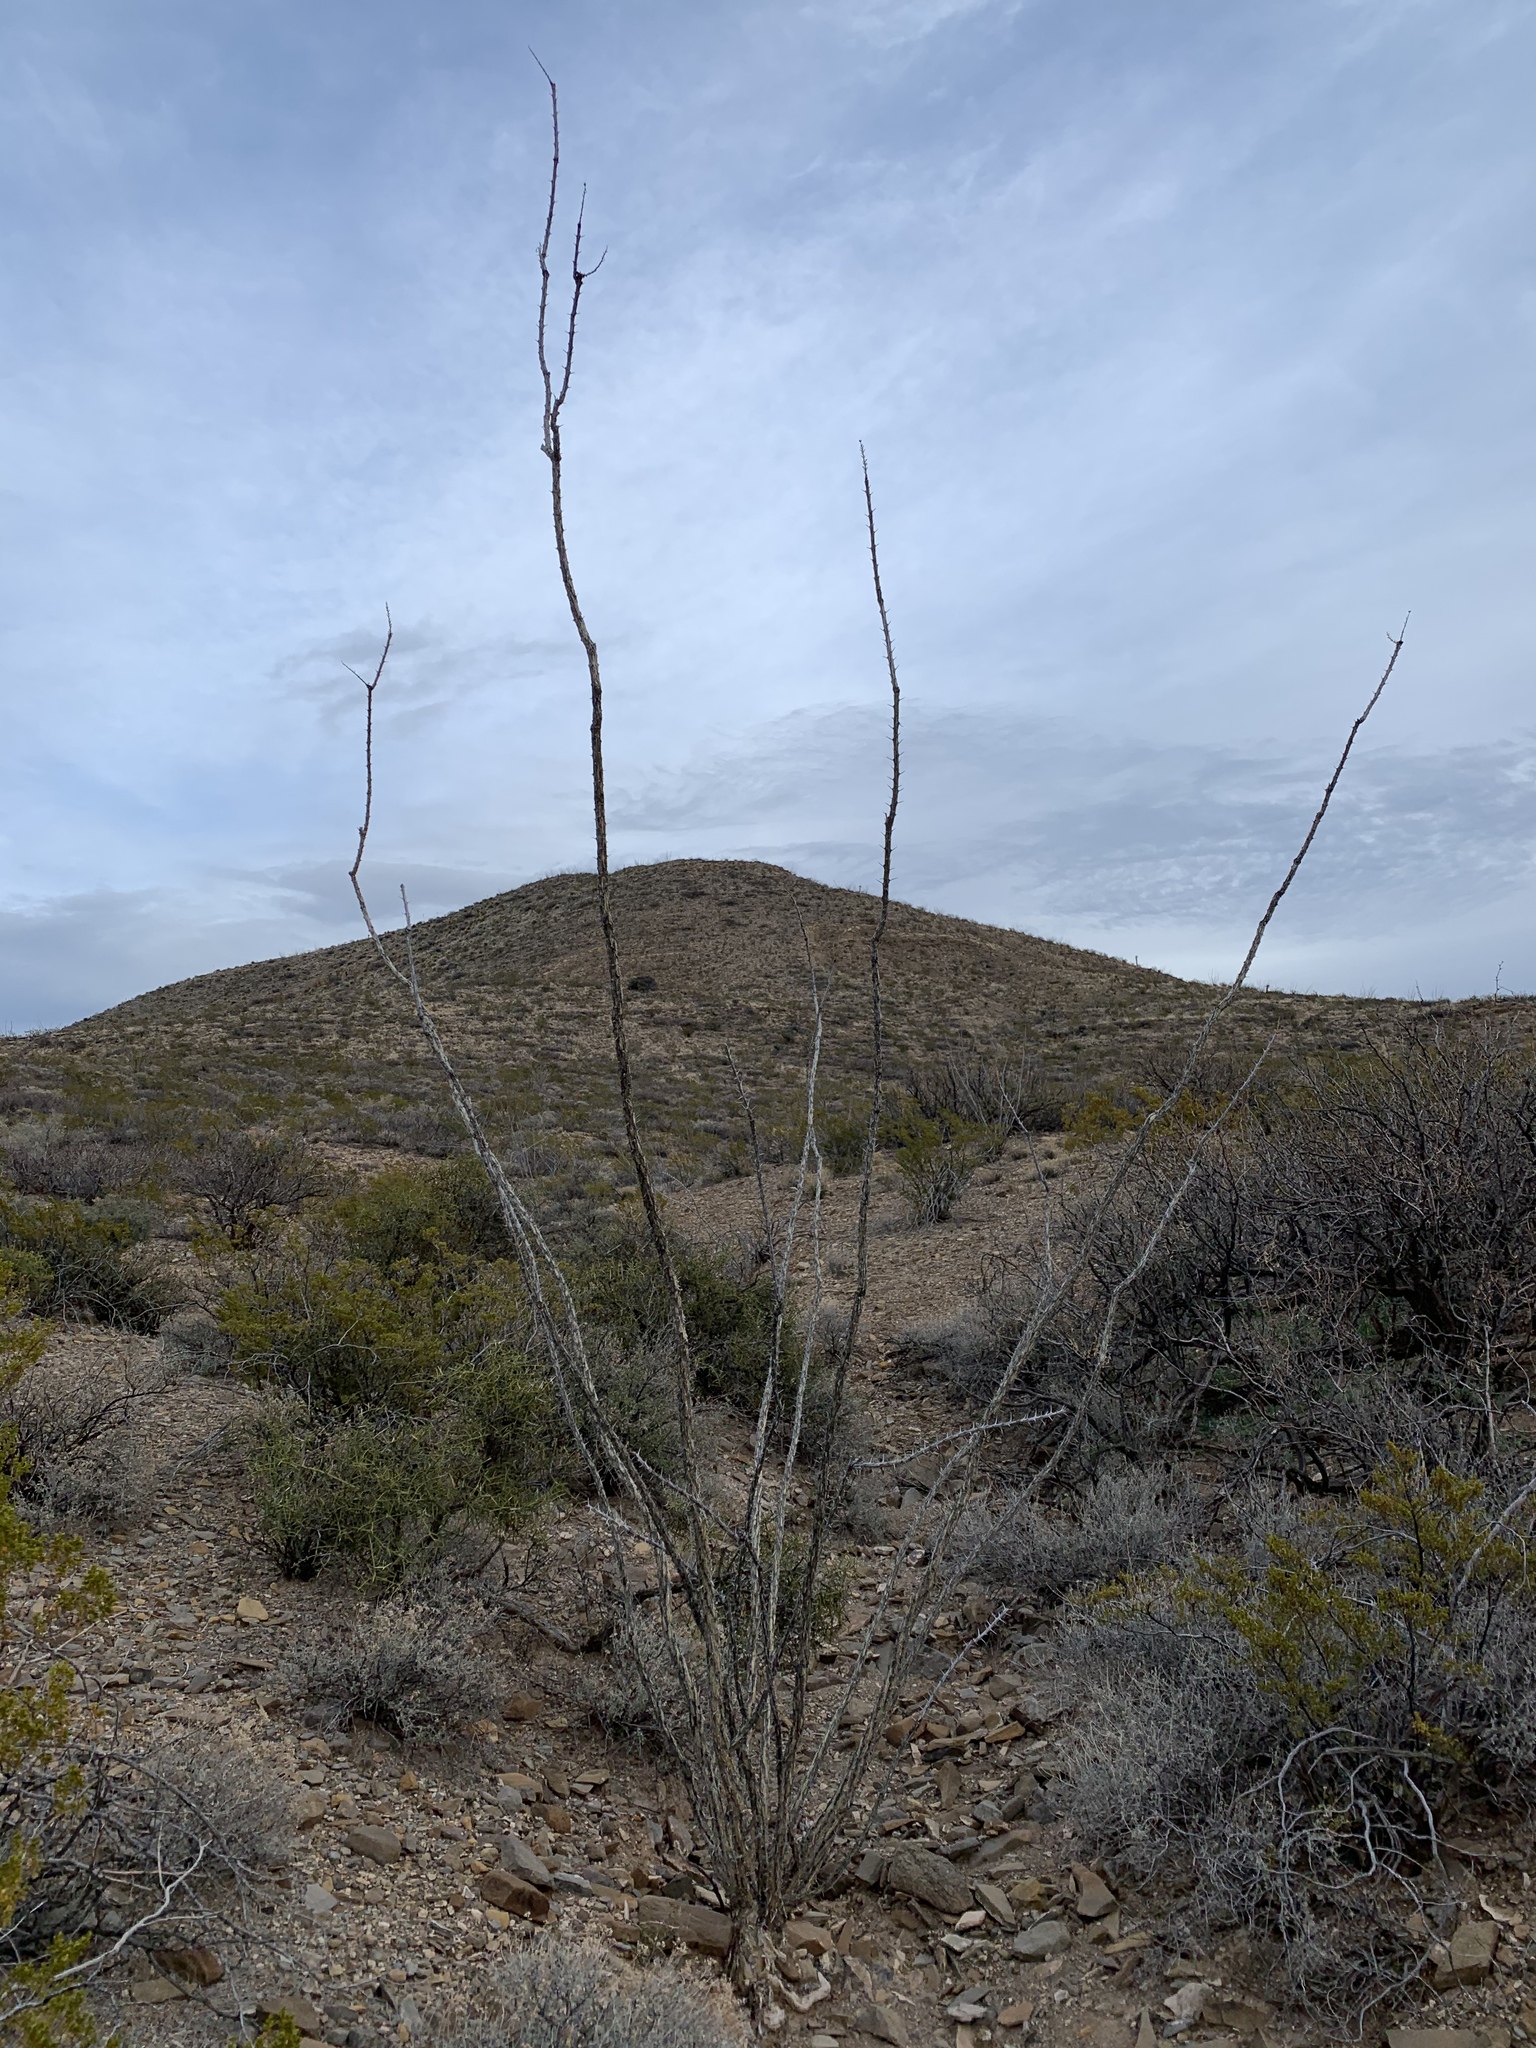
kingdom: Plantae
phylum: Tracheophyta
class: Magnoliopsida
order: Ericales
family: Fouquieriaceae
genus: Fouquieria
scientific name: Fouquieria splendens
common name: Vine-cactus
